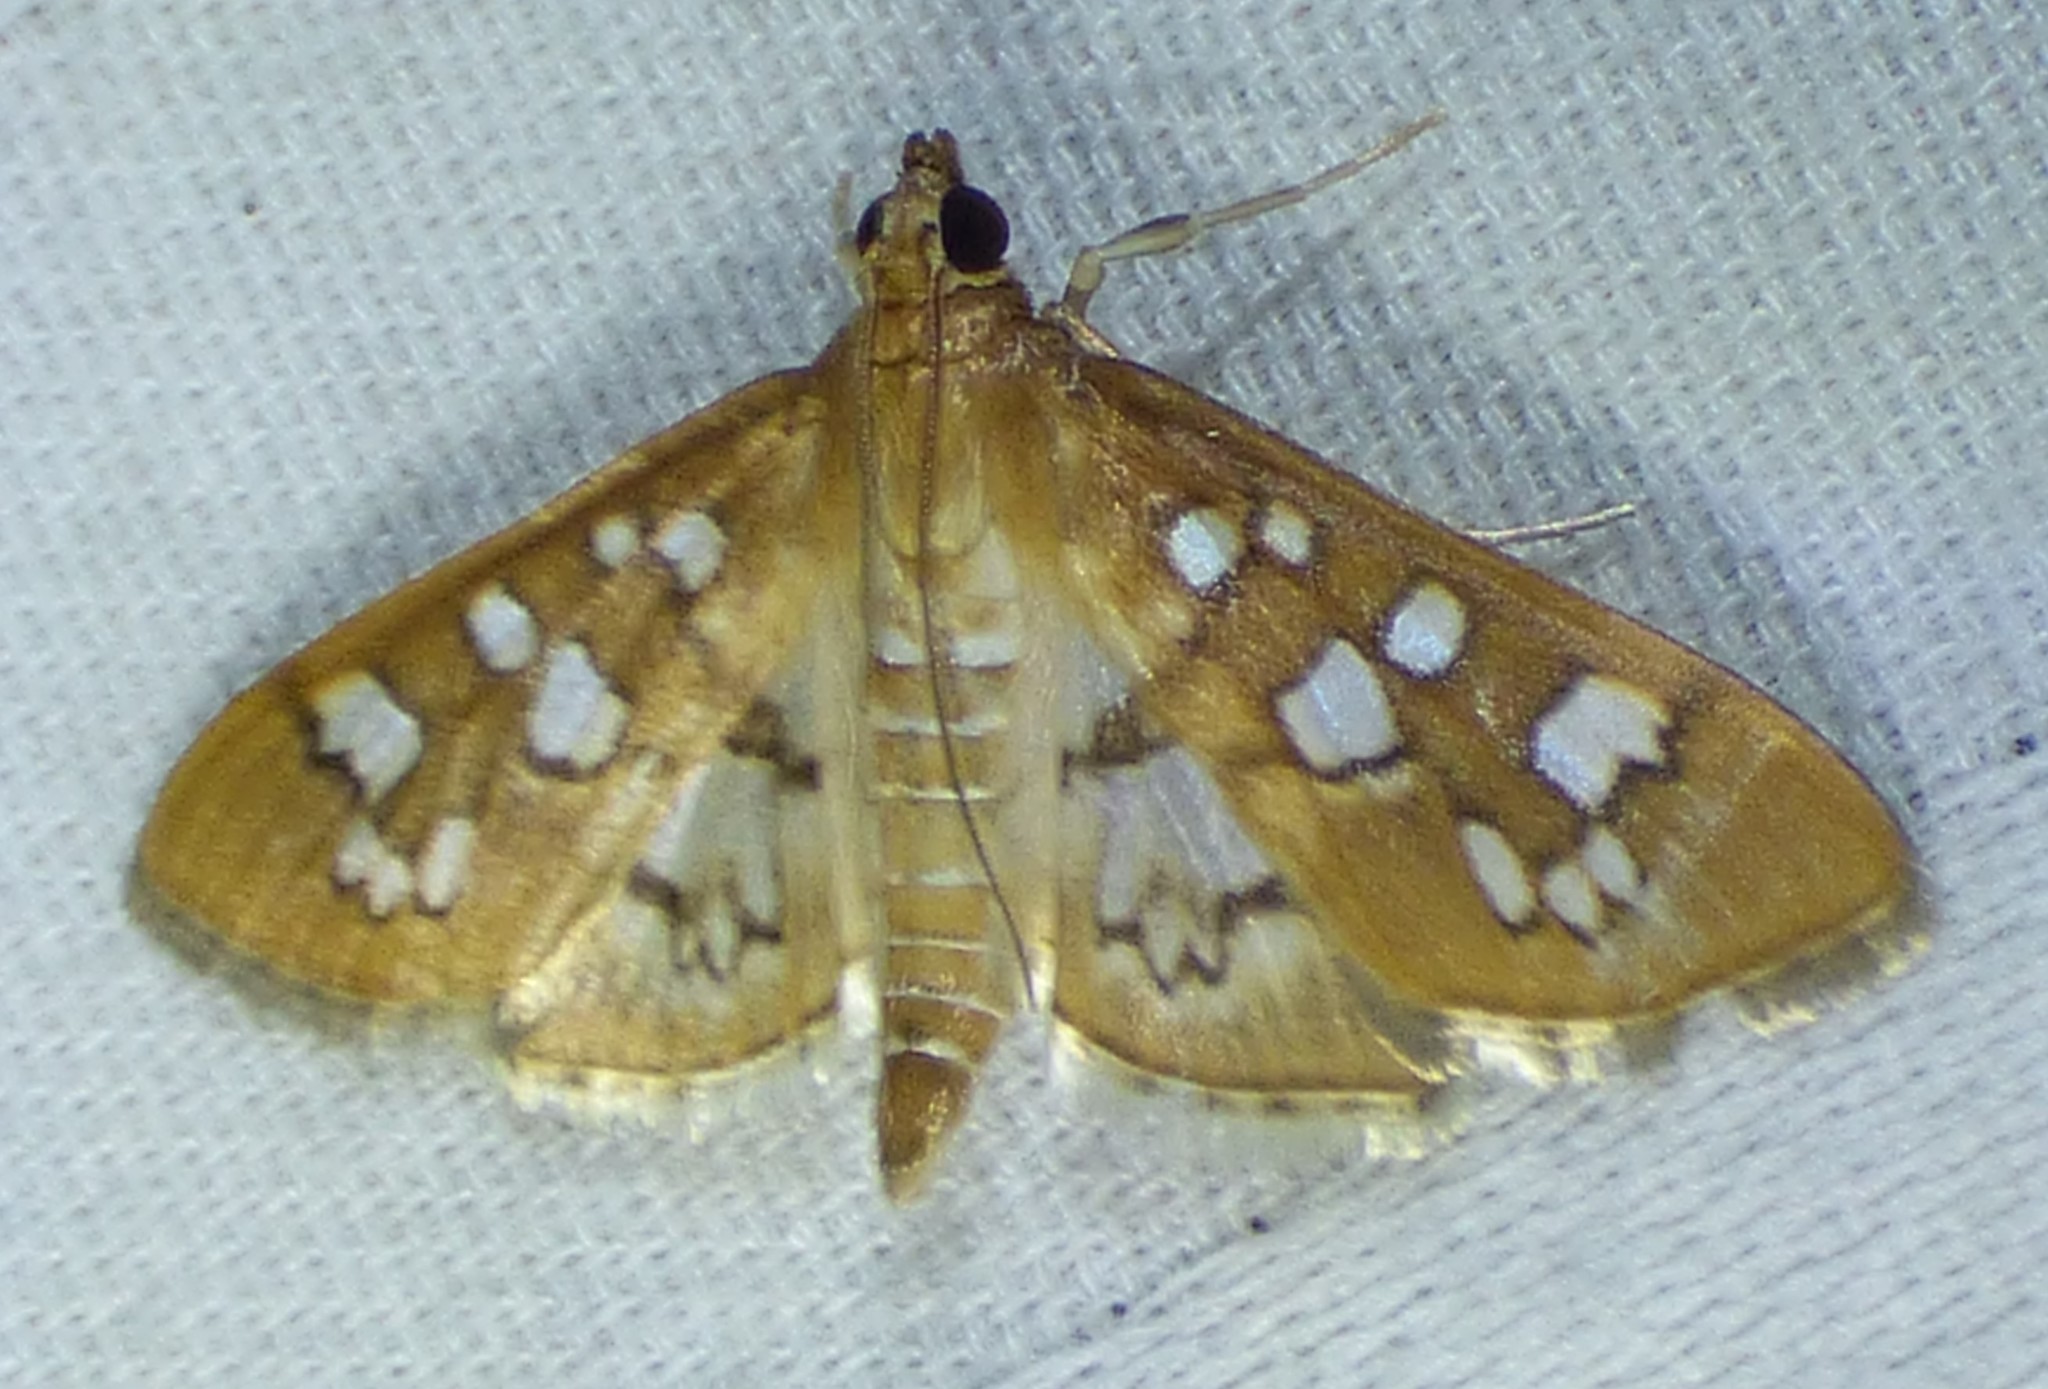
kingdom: Animalia
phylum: Arthropoda
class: Insecta
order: Lepidoptera
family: Crambidae
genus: Samea
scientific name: Samea baccatalis
